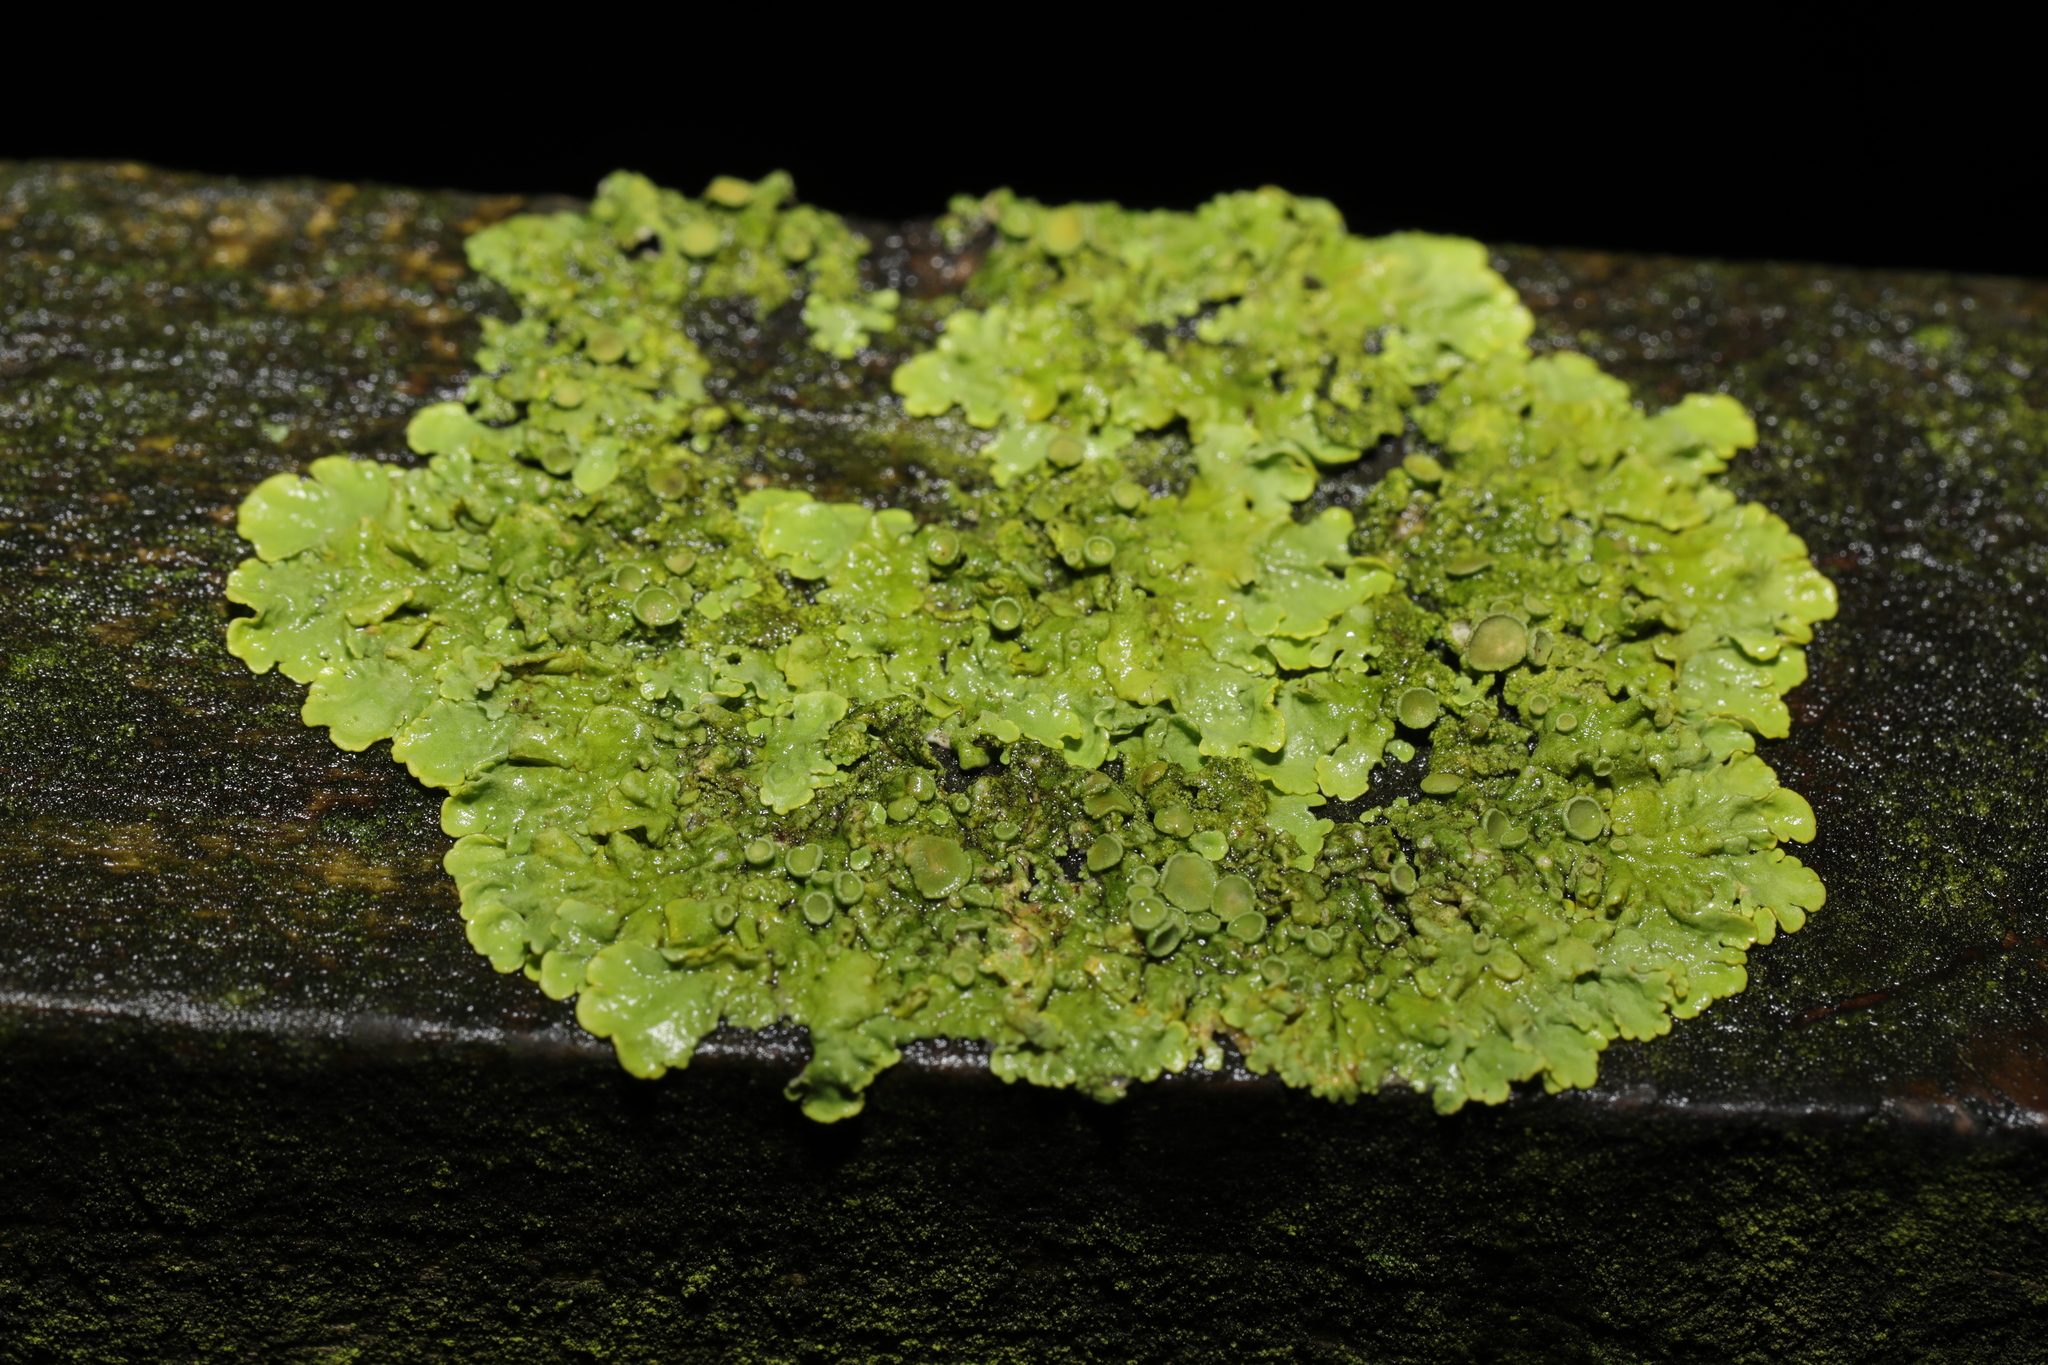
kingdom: Fungi
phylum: Ascomycota
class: Lecanoromycetes
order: Teloschistales
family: Teloschistaceae
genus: Xanthoria
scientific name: Xanthoria parietina
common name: Common orange lichen
